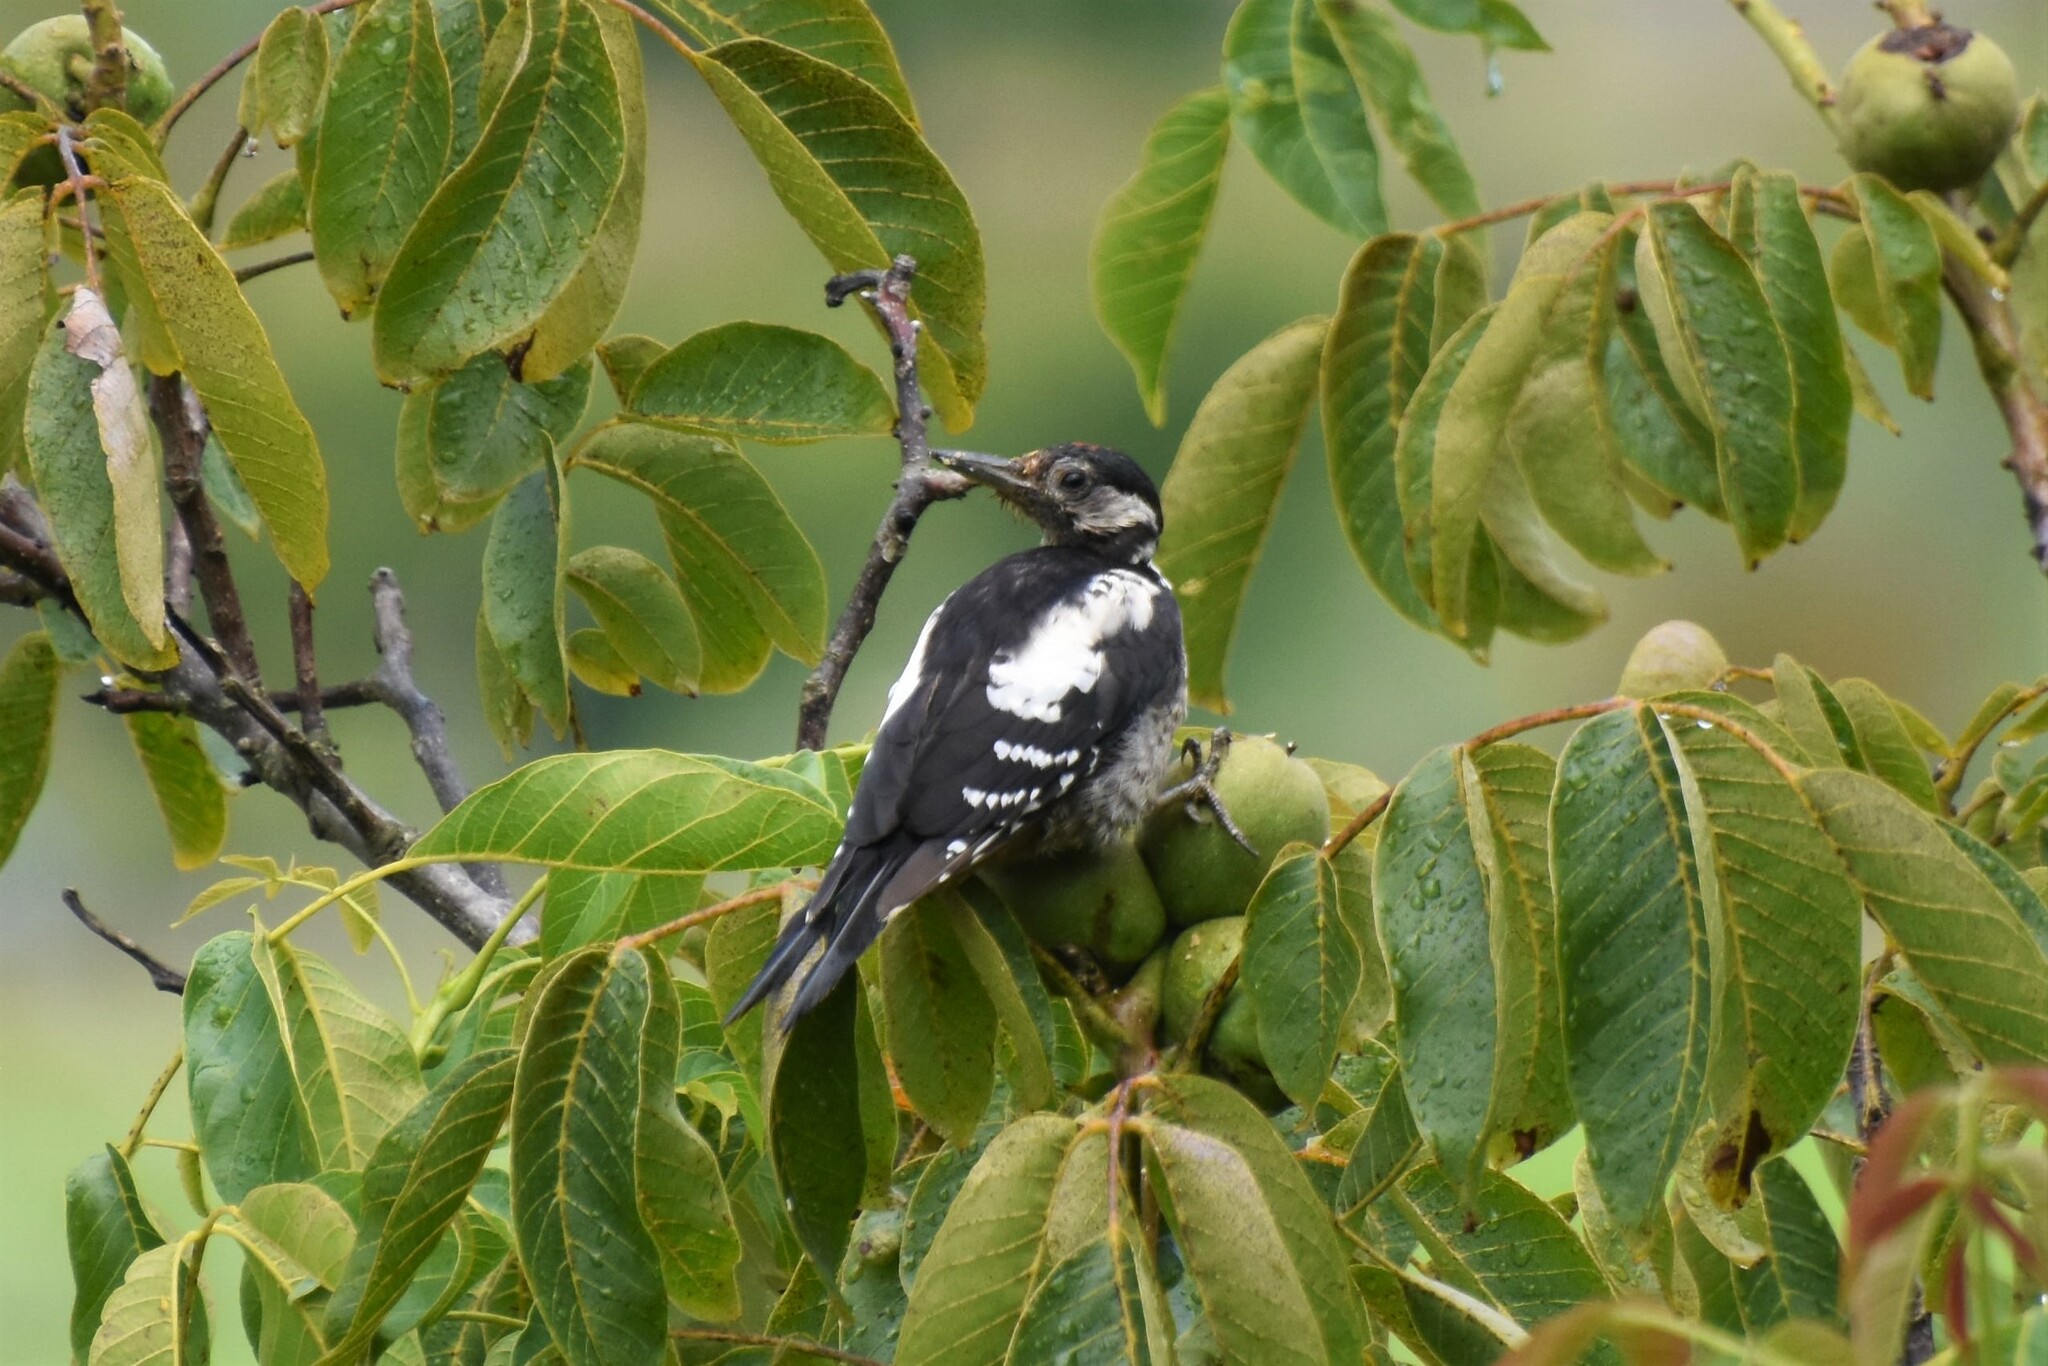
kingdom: Animalia
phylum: Chordata
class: Aves
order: Piciformes
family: Picidae
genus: Dendrocopos
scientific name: Dendrocopos major
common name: Great spotted woodpecker
